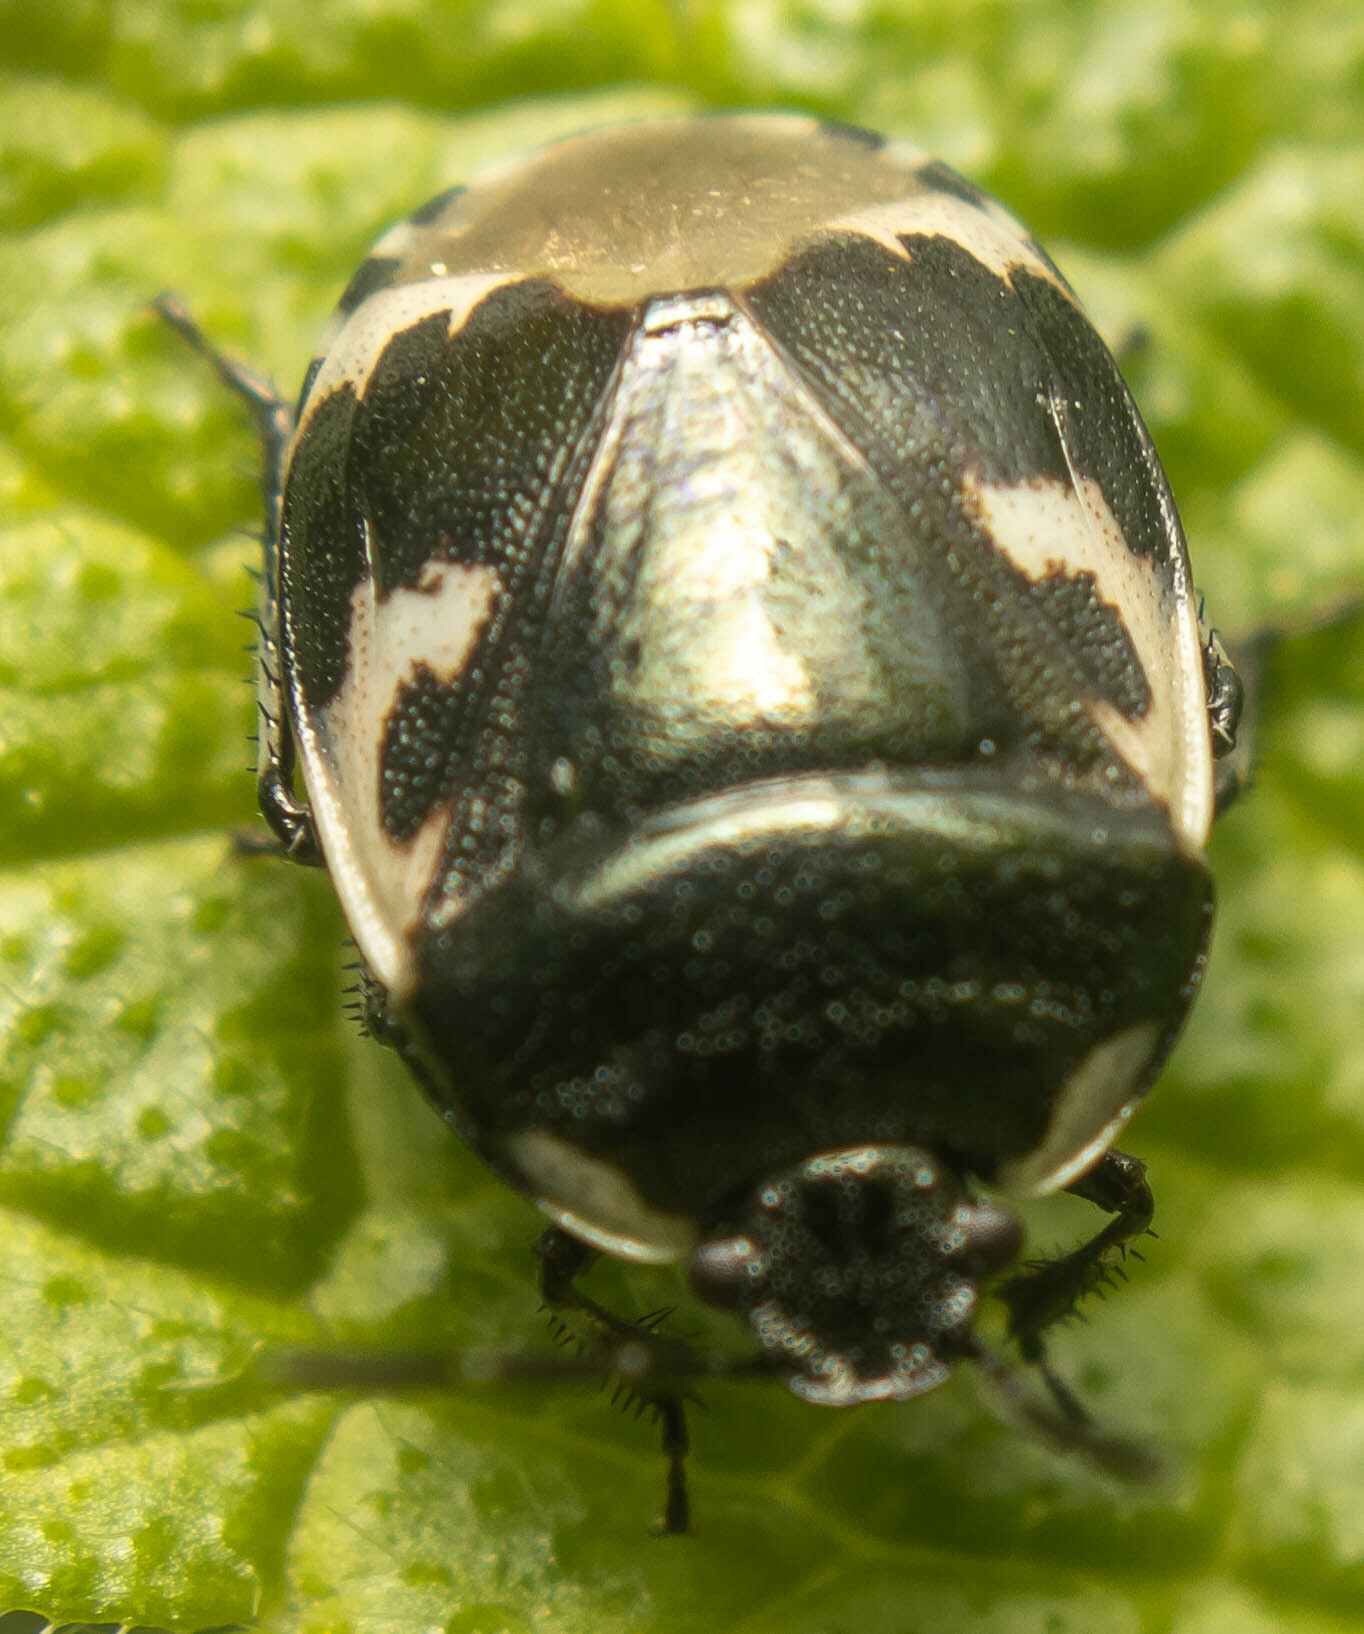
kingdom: Animalia
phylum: Arthropoda
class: Insecta
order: Hemiptera
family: Cydnidae
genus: Tritomegas
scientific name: Tritomegas bicolor
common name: Pied shieldbug
